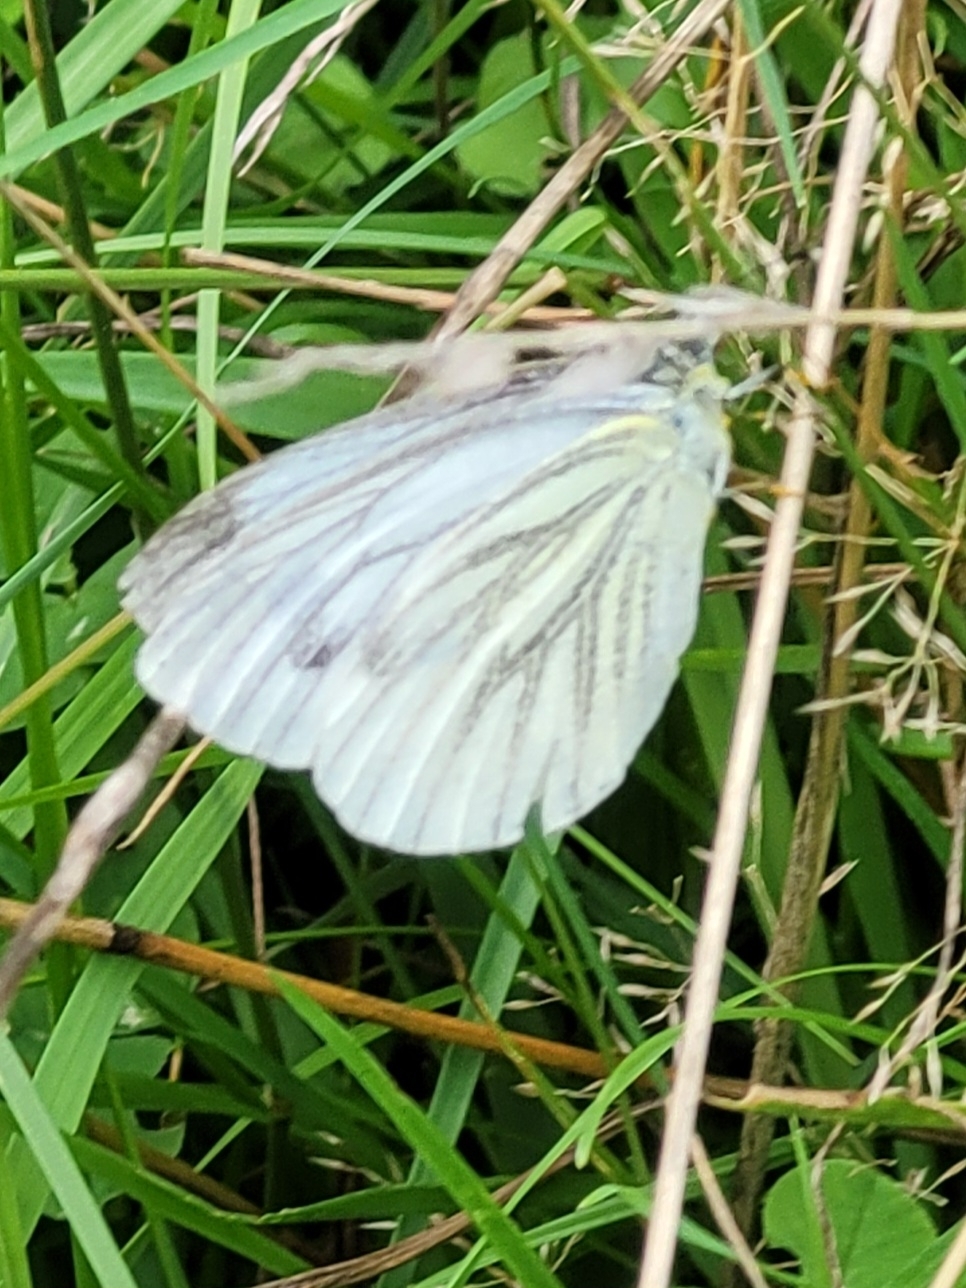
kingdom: Animalia
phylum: Arthropoda
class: Insecta
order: Lepidoptera
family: Pieridae
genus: Pieris
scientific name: Pieris napi
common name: Green-veined white
